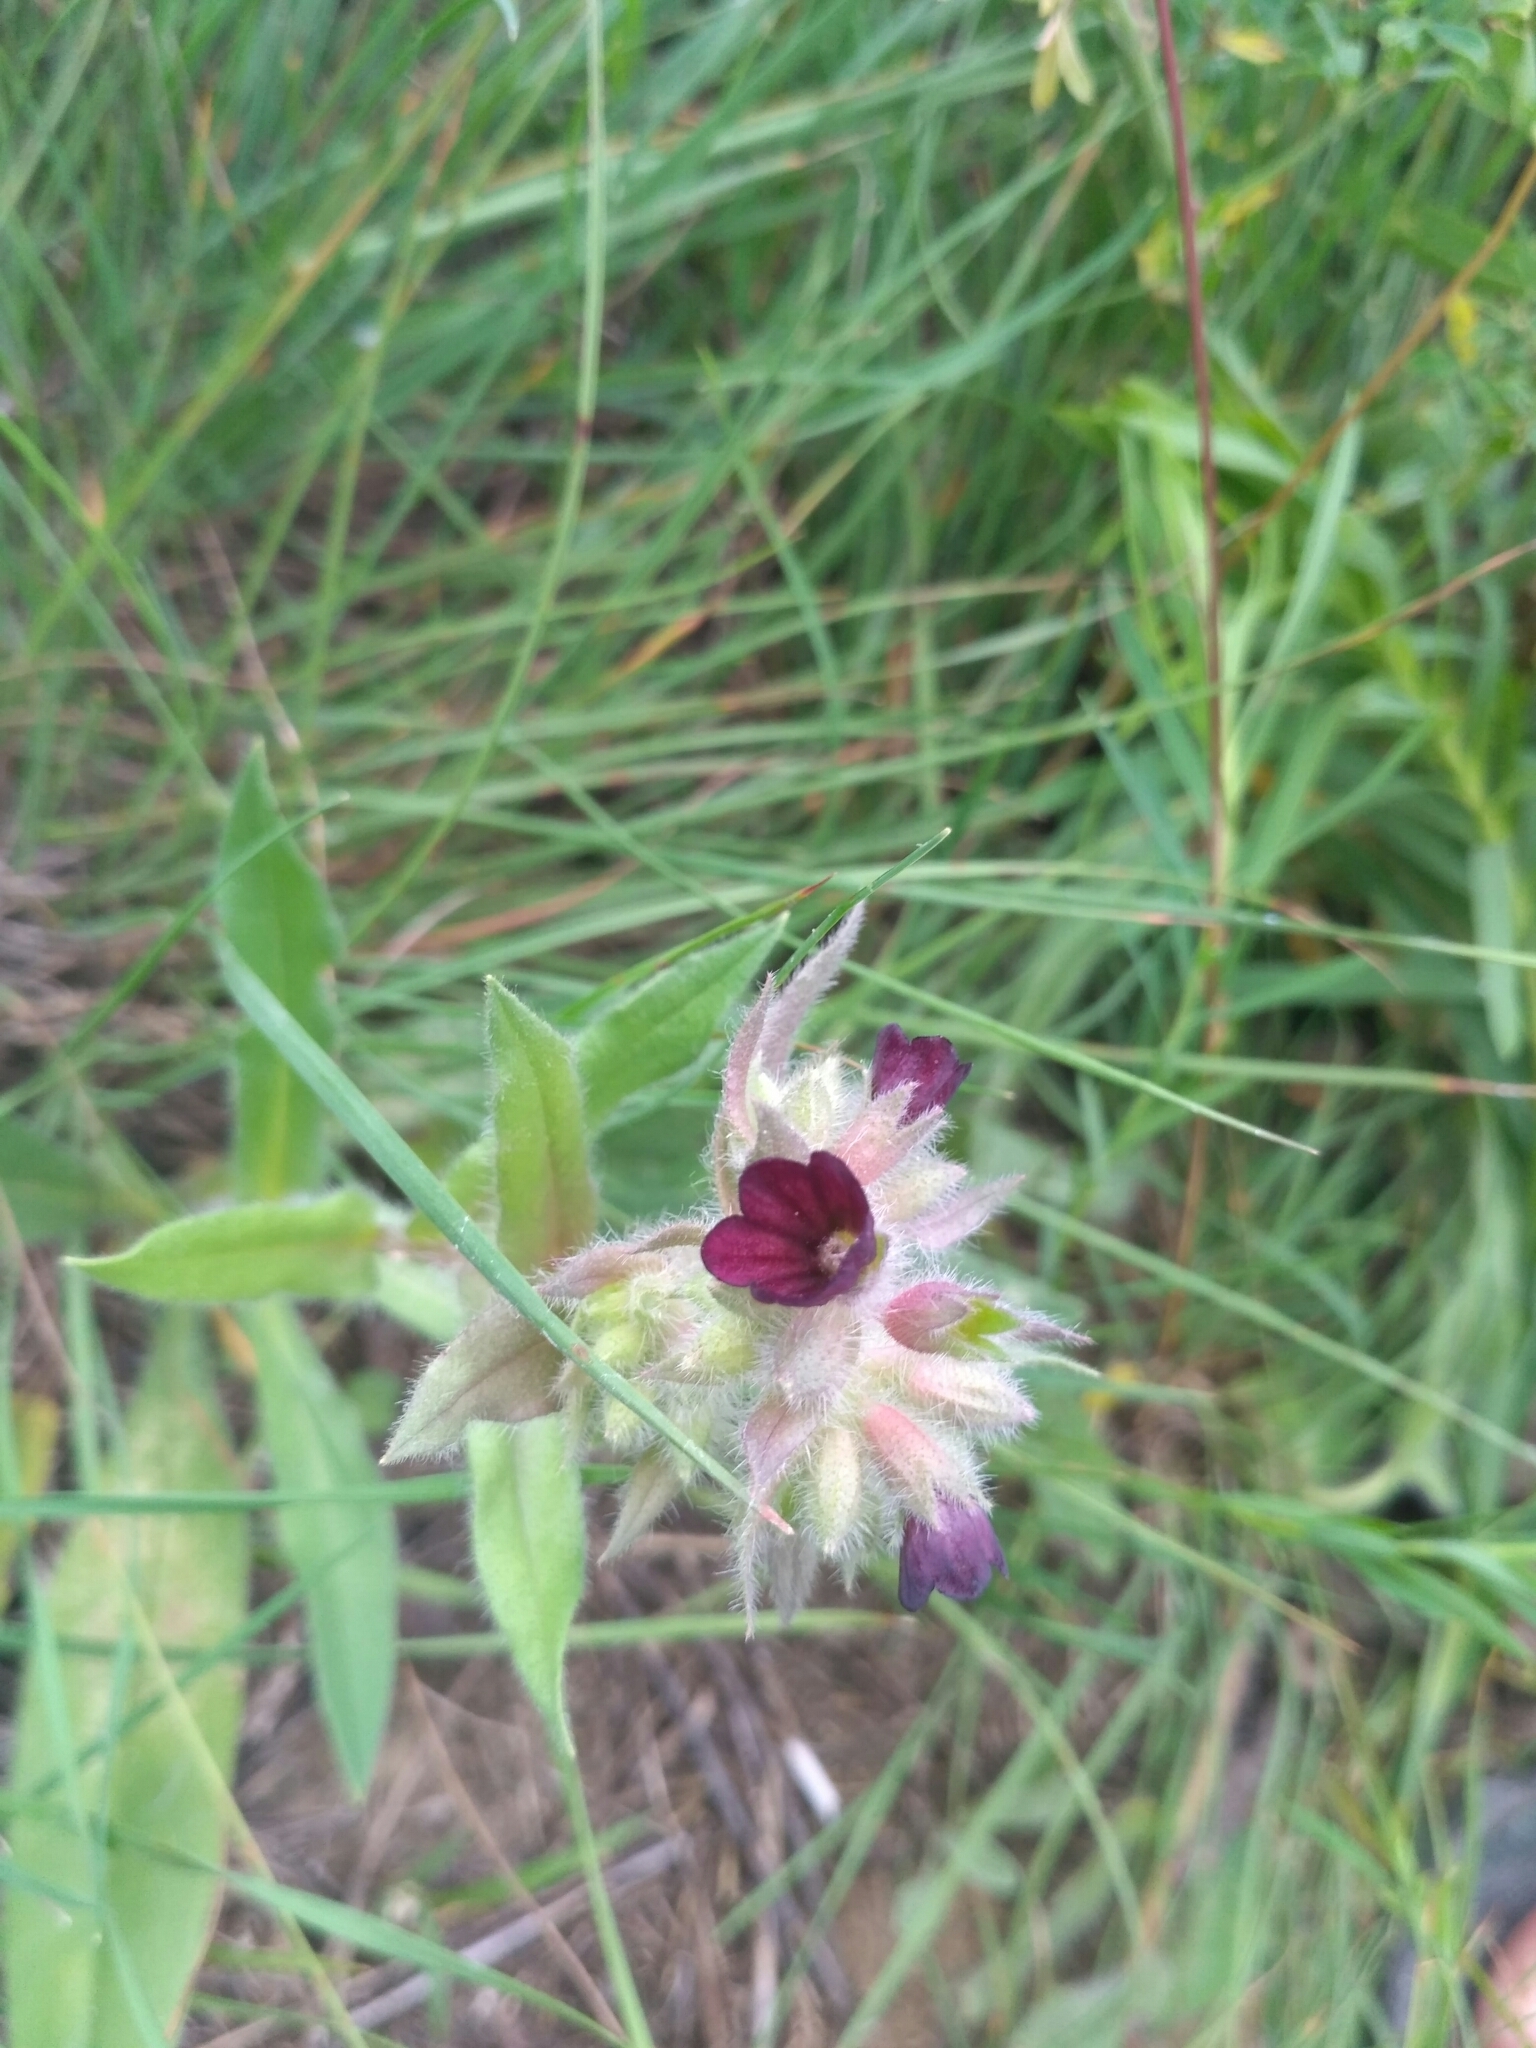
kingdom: Plantae
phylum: Tracheophyta
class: Magnoliopsida
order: Boraginales
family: Boraginaceae
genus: Nonea
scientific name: Nonea pulla
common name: Brown nonea
